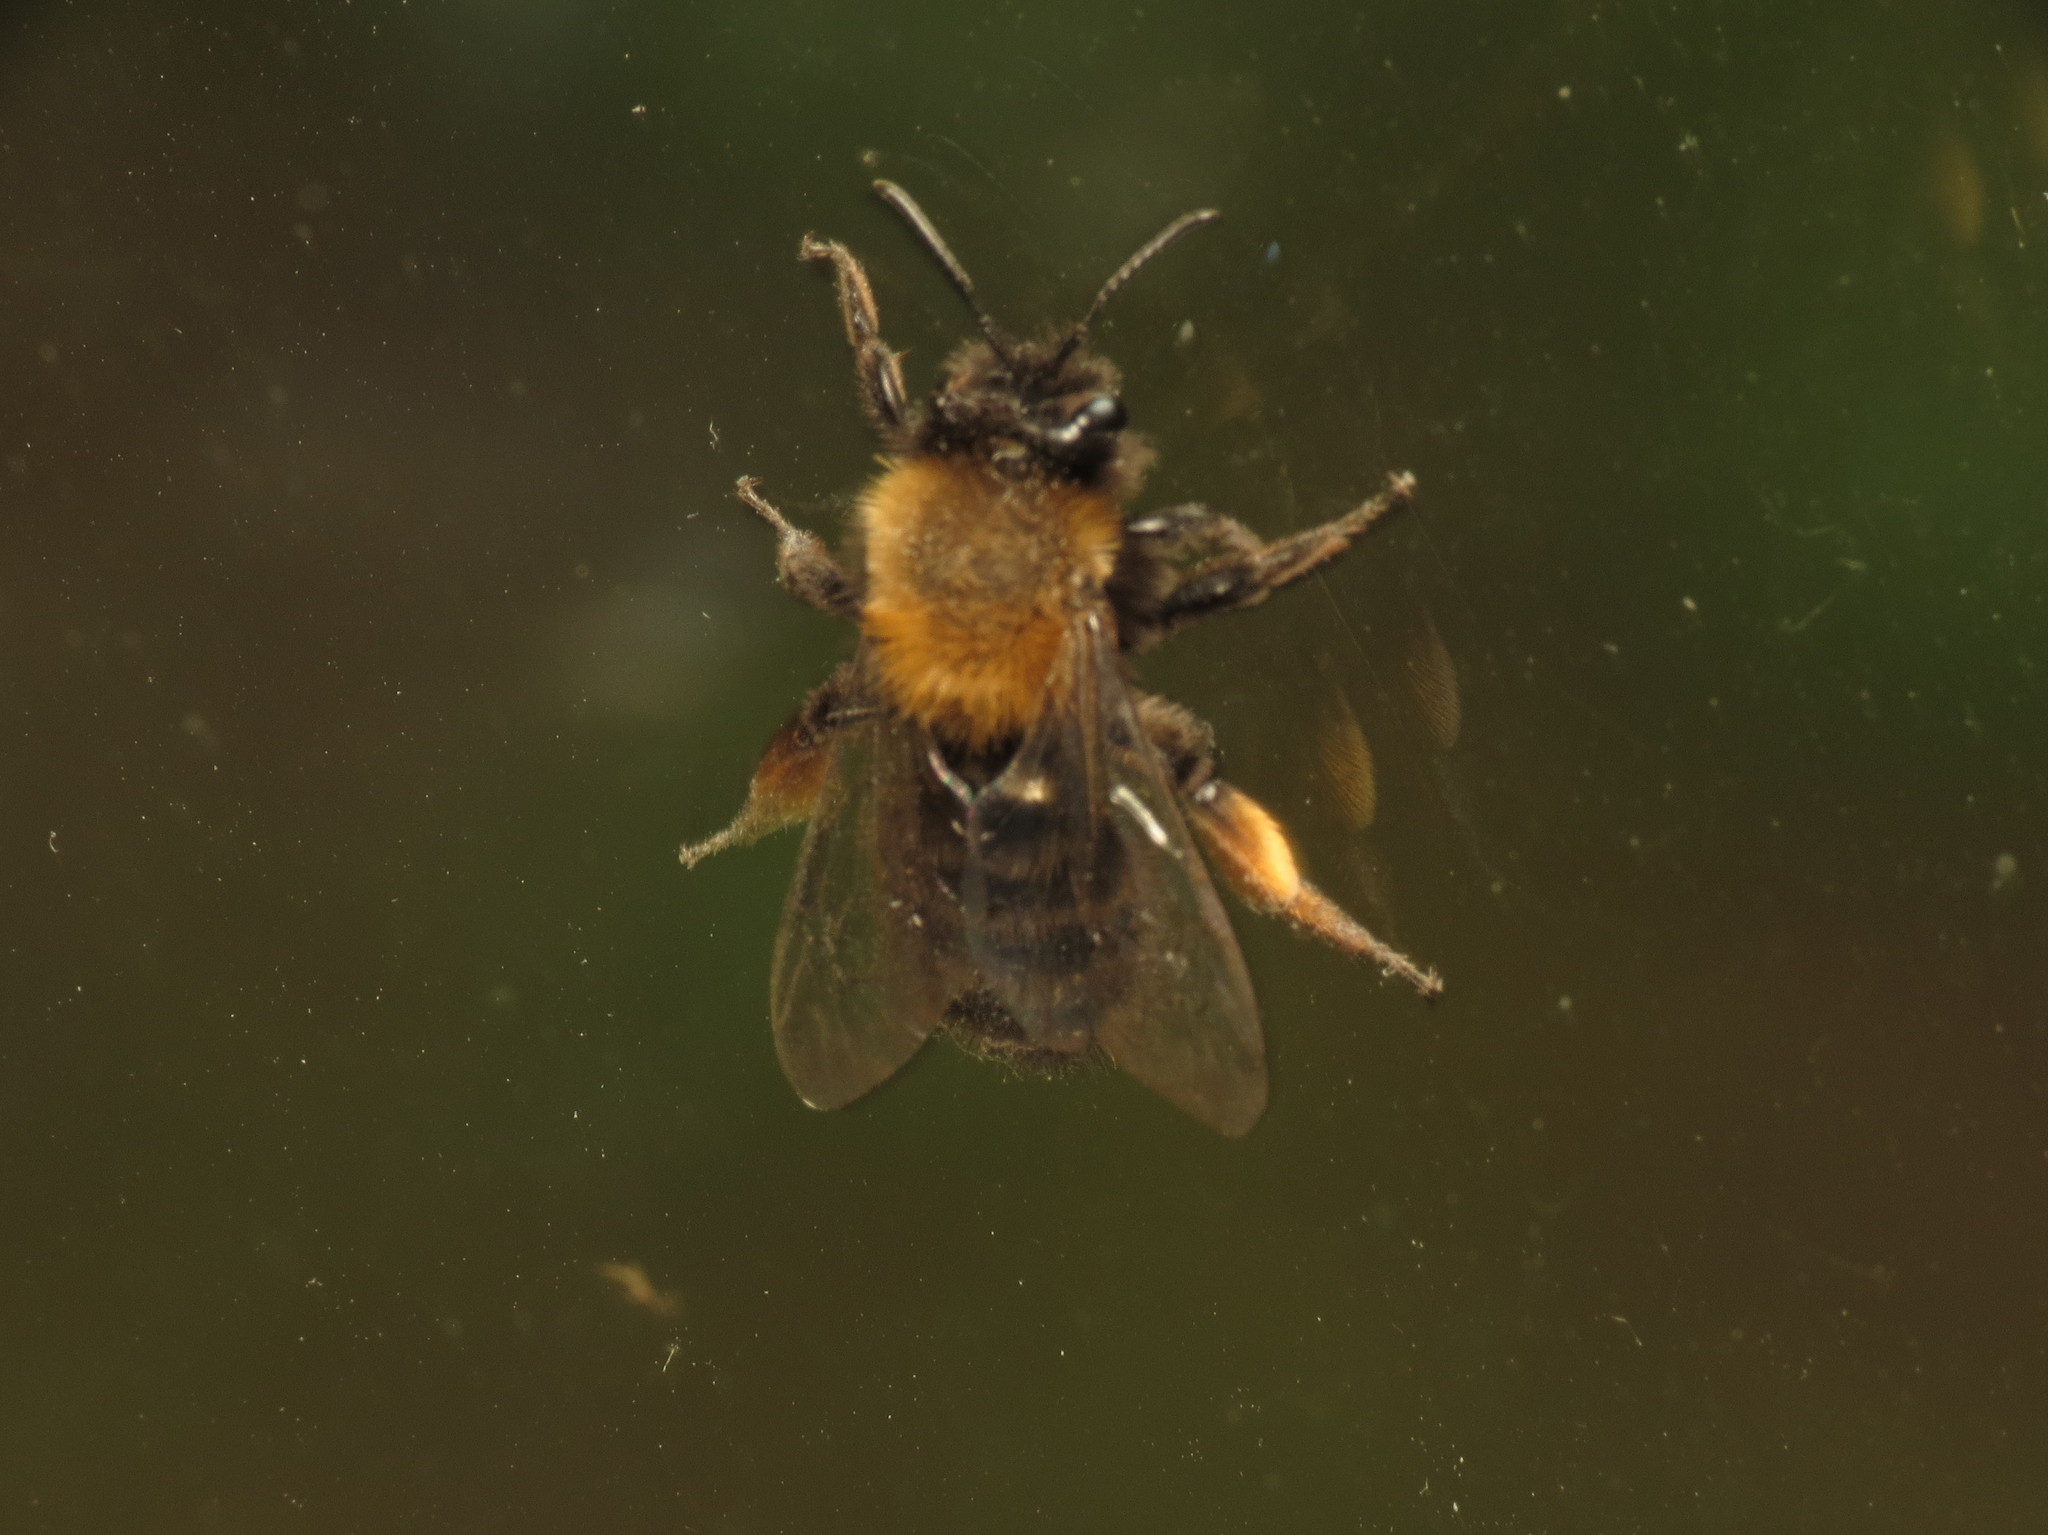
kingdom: Animalia
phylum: Arthropoda
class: Insecta
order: Hymenoptera
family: Andrenidae
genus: Andrena
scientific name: Andrena clarkella
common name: Clarke's mining bee
